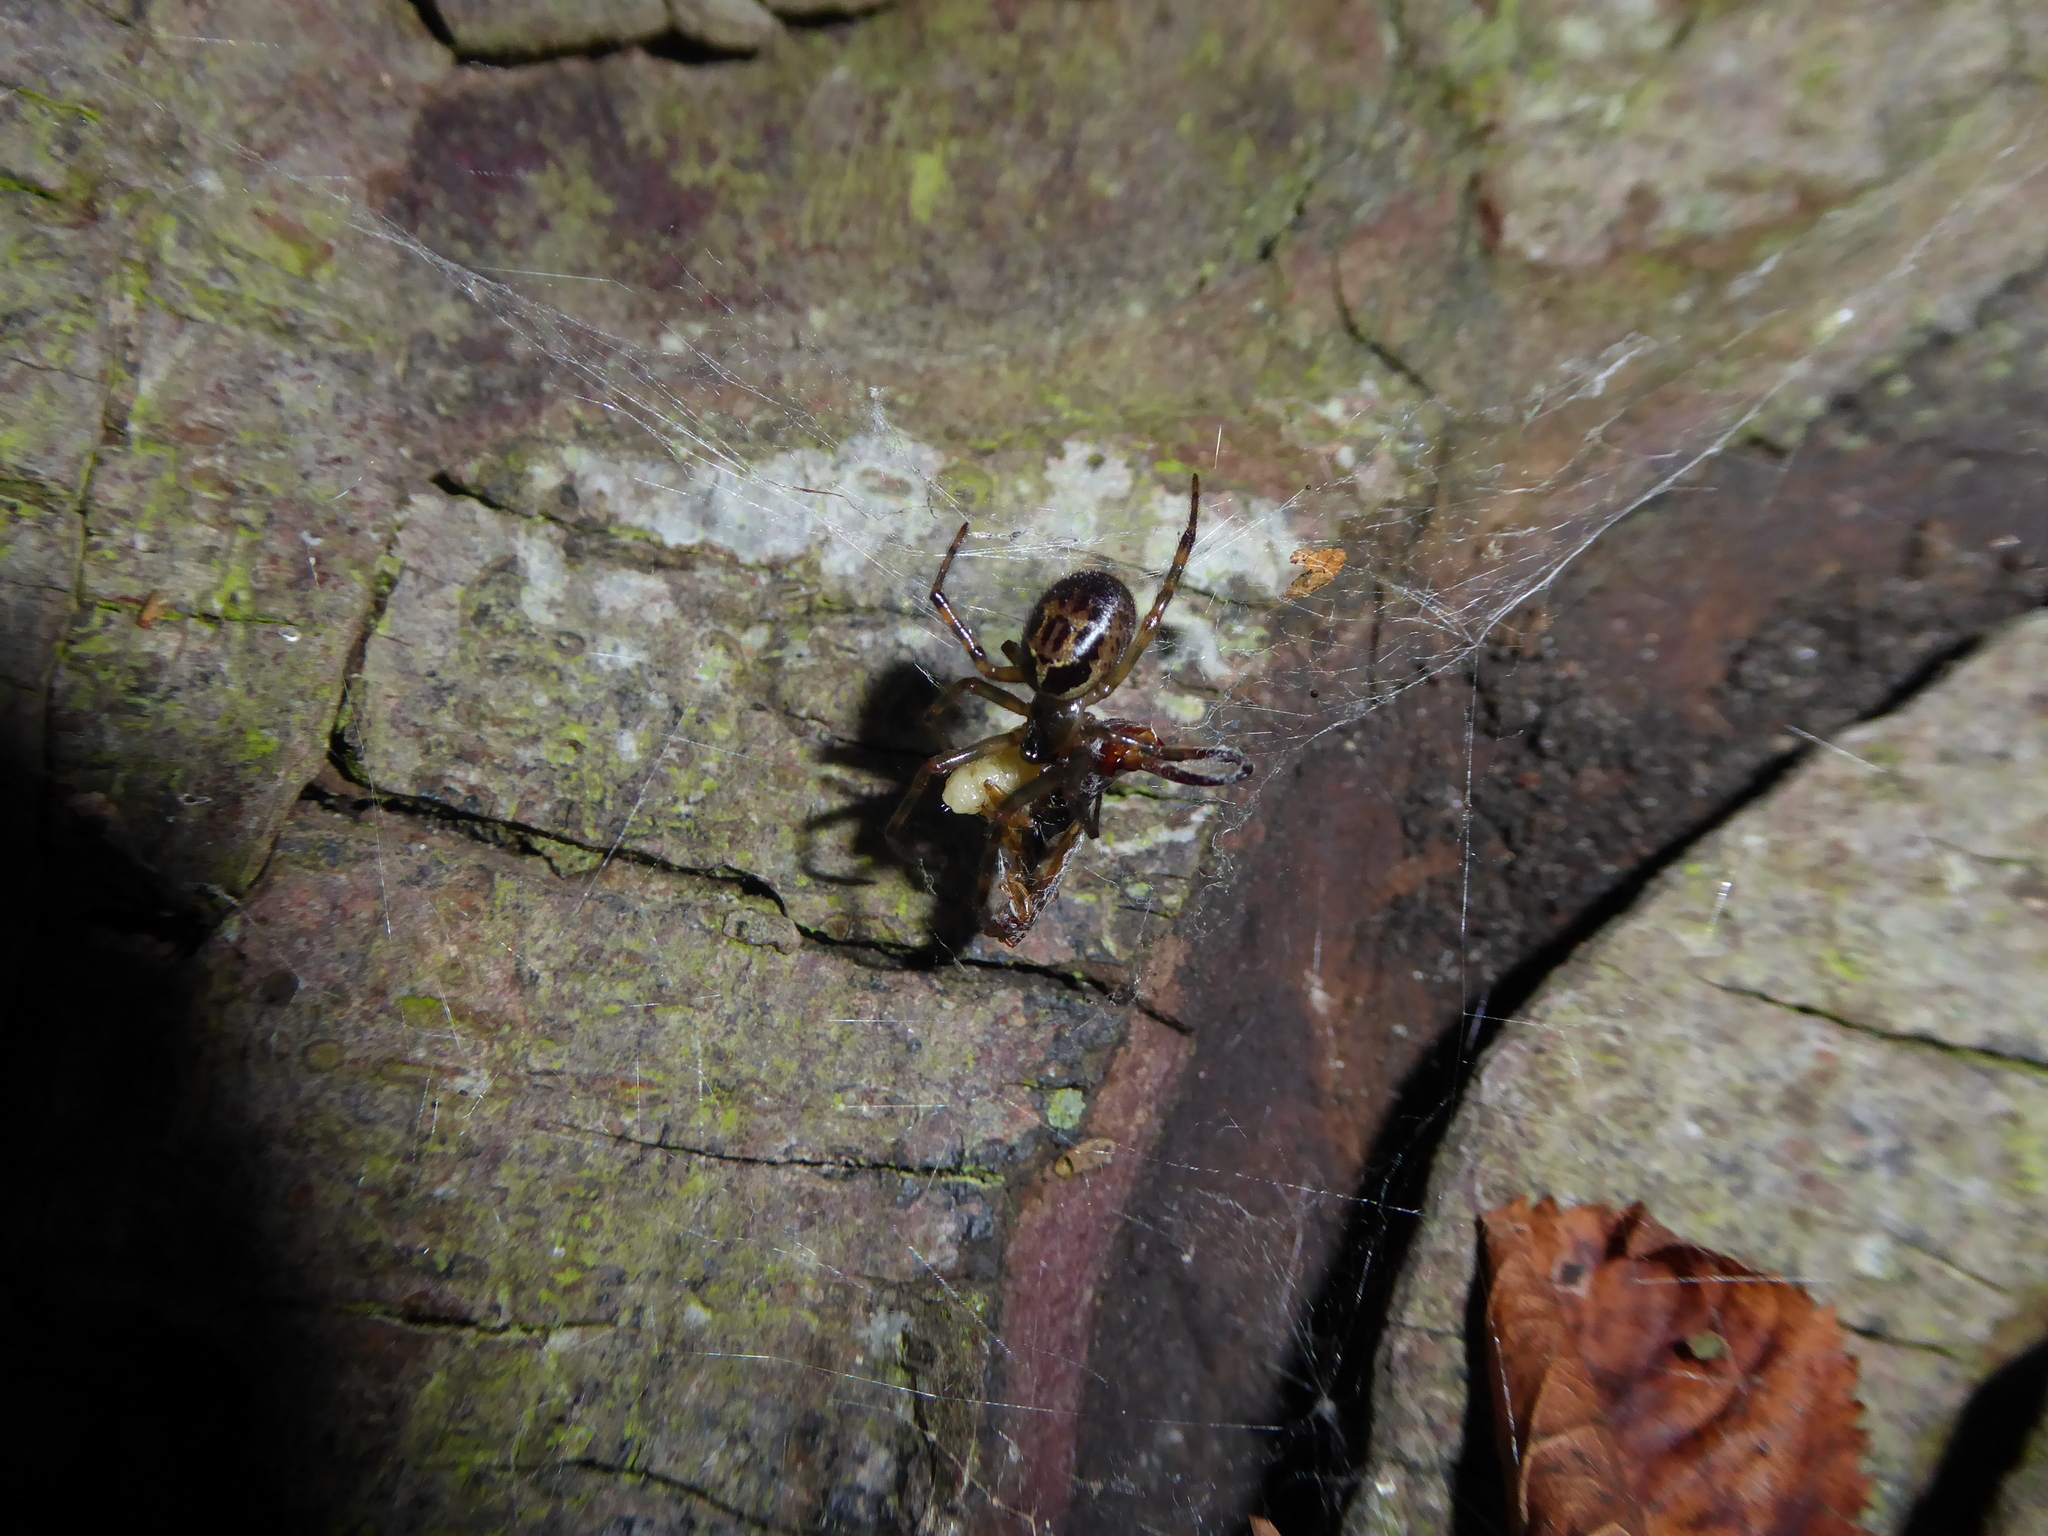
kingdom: Animalia
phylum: Arthropoda
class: Arachnida
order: Araneae
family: Theridiidae
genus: Steatoda
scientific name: Steatoda nobilis
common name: Cobweb weaver
